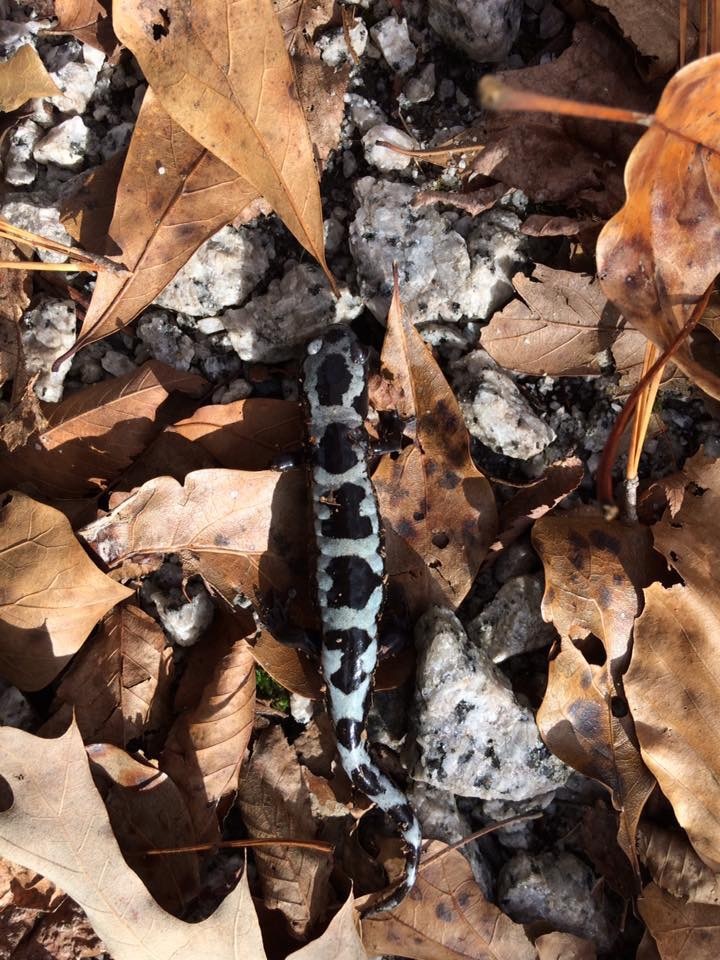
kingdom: Animalia
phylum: Chordata
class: Amphibia
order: Caudata
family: Ambystomatidae
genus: Ambystoma
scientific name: Ambystoma opacum
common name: Marbled salamander
